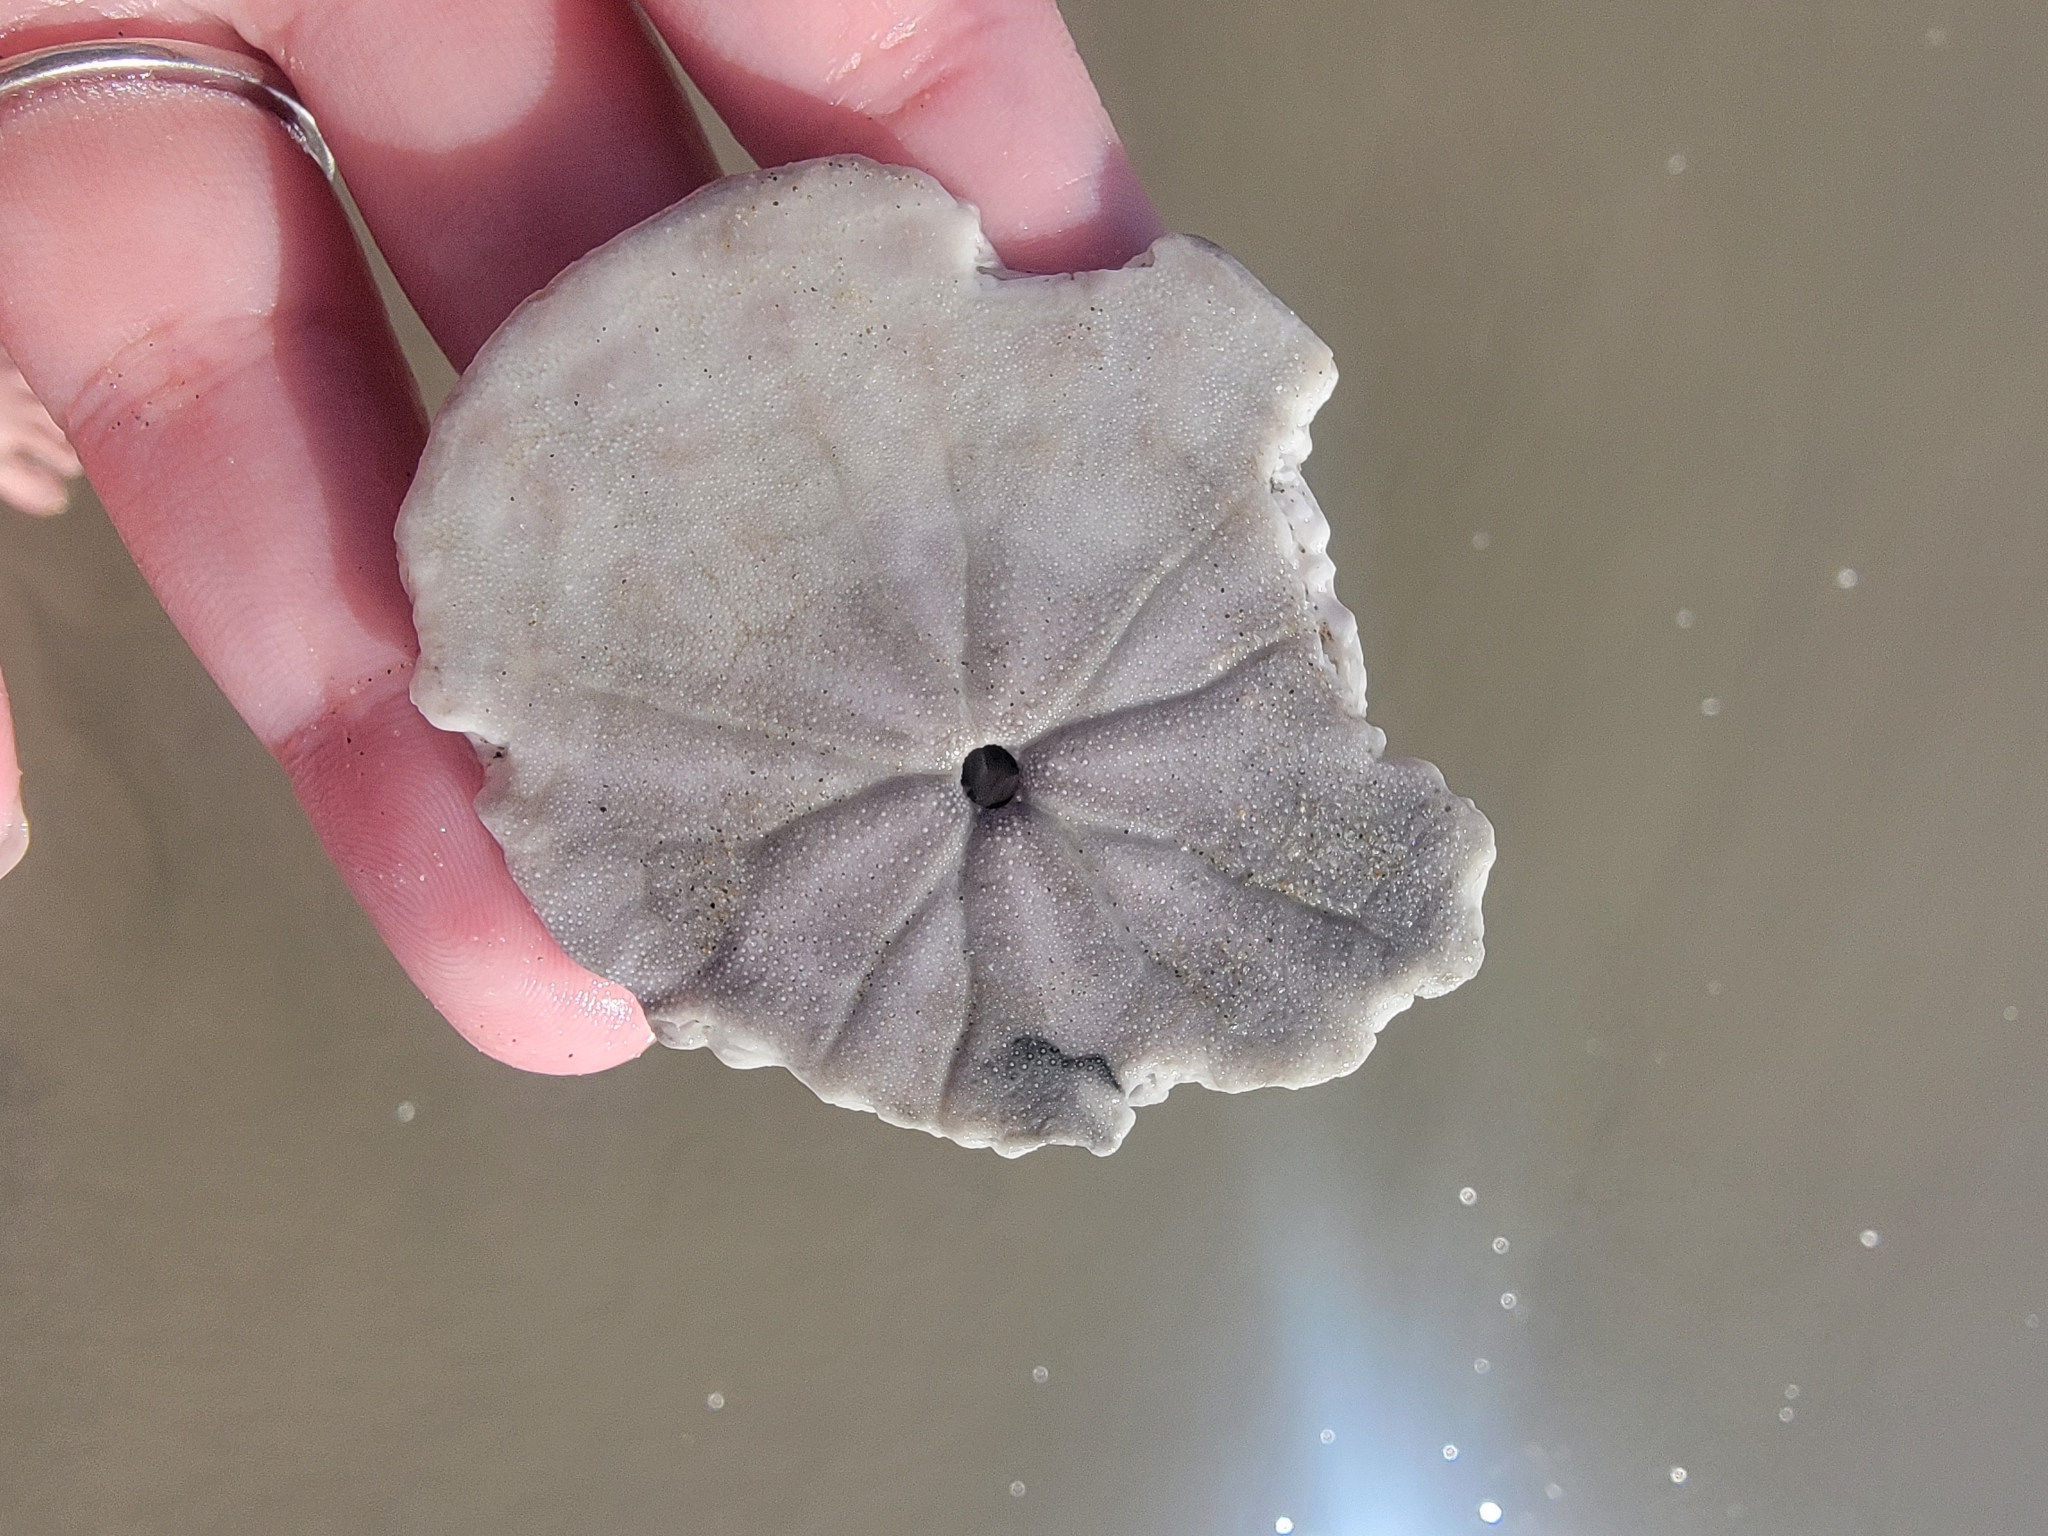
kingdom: Animalia
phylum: Echinodermata
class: Echinoidea
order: Echinolampadacea
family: Dendrasteridae
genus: Dendraster
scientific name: Dendraster excentricus
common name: Eccentric sand dollar sea urchin
